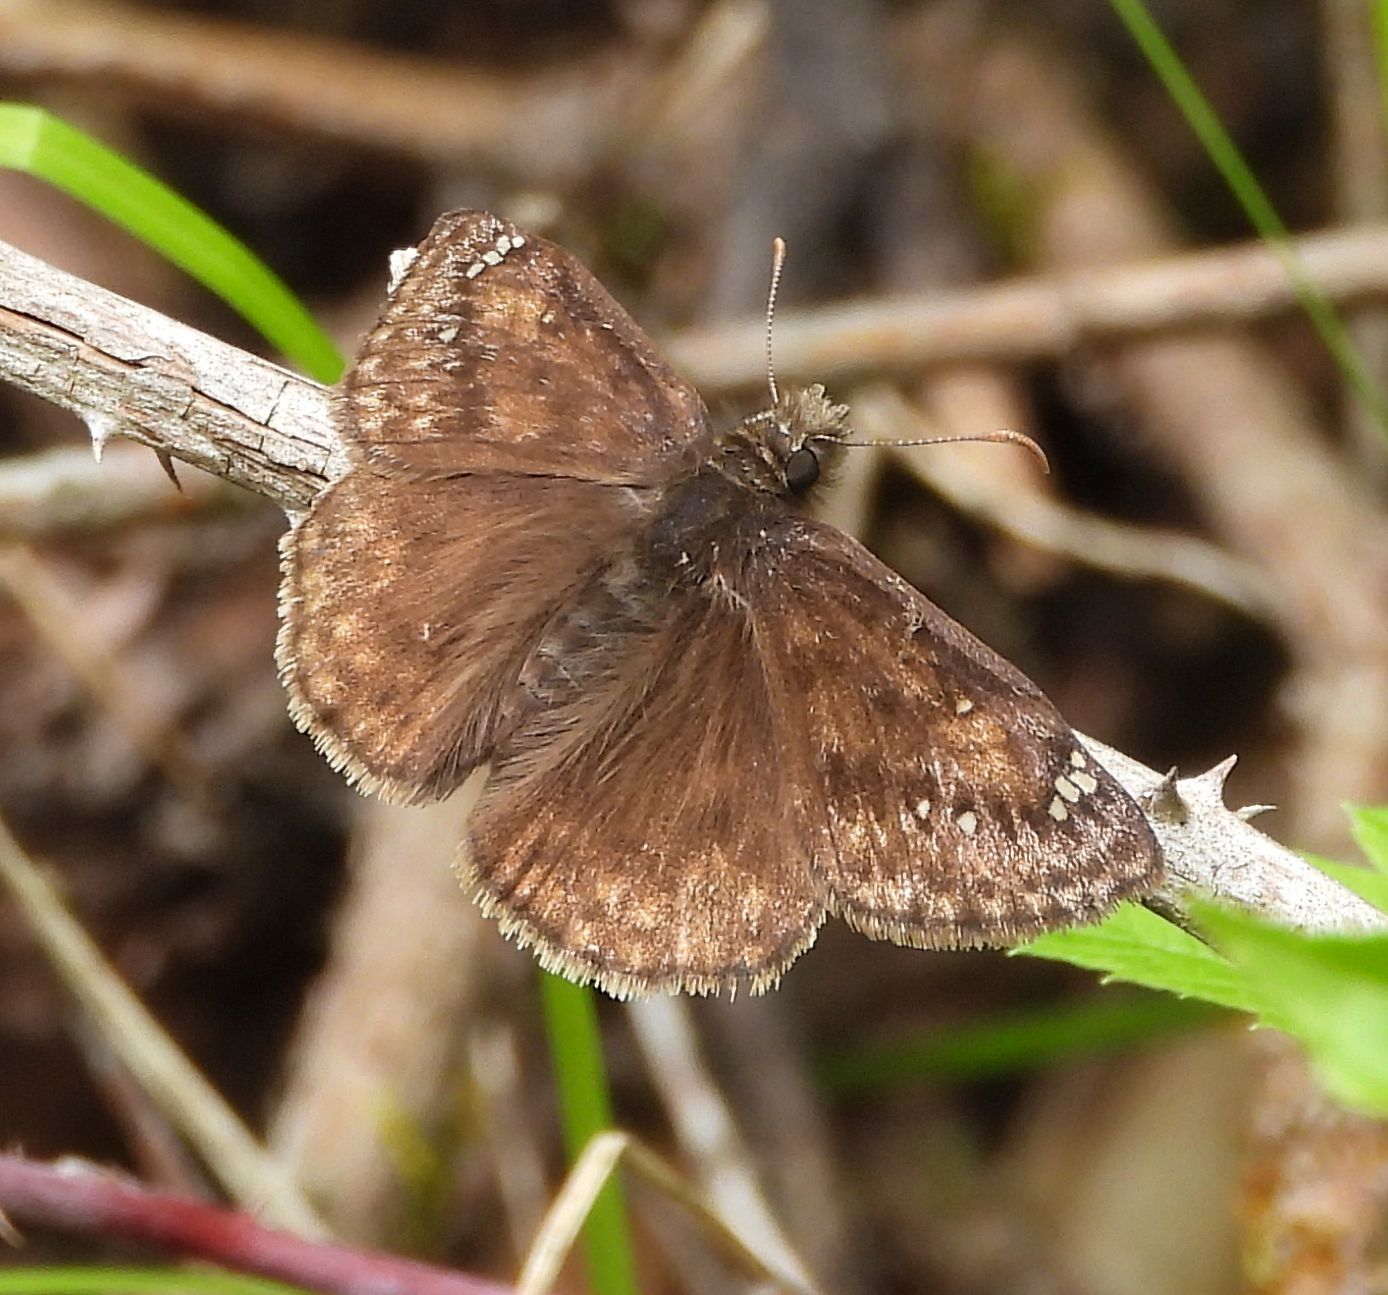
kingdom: Animalia
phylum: Arthropoda
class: Insecta
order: Lepidoptera
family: Hesperiidae
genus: Erynnis
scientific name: Erynnis juvenalis
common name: Juvenal's duskywing
